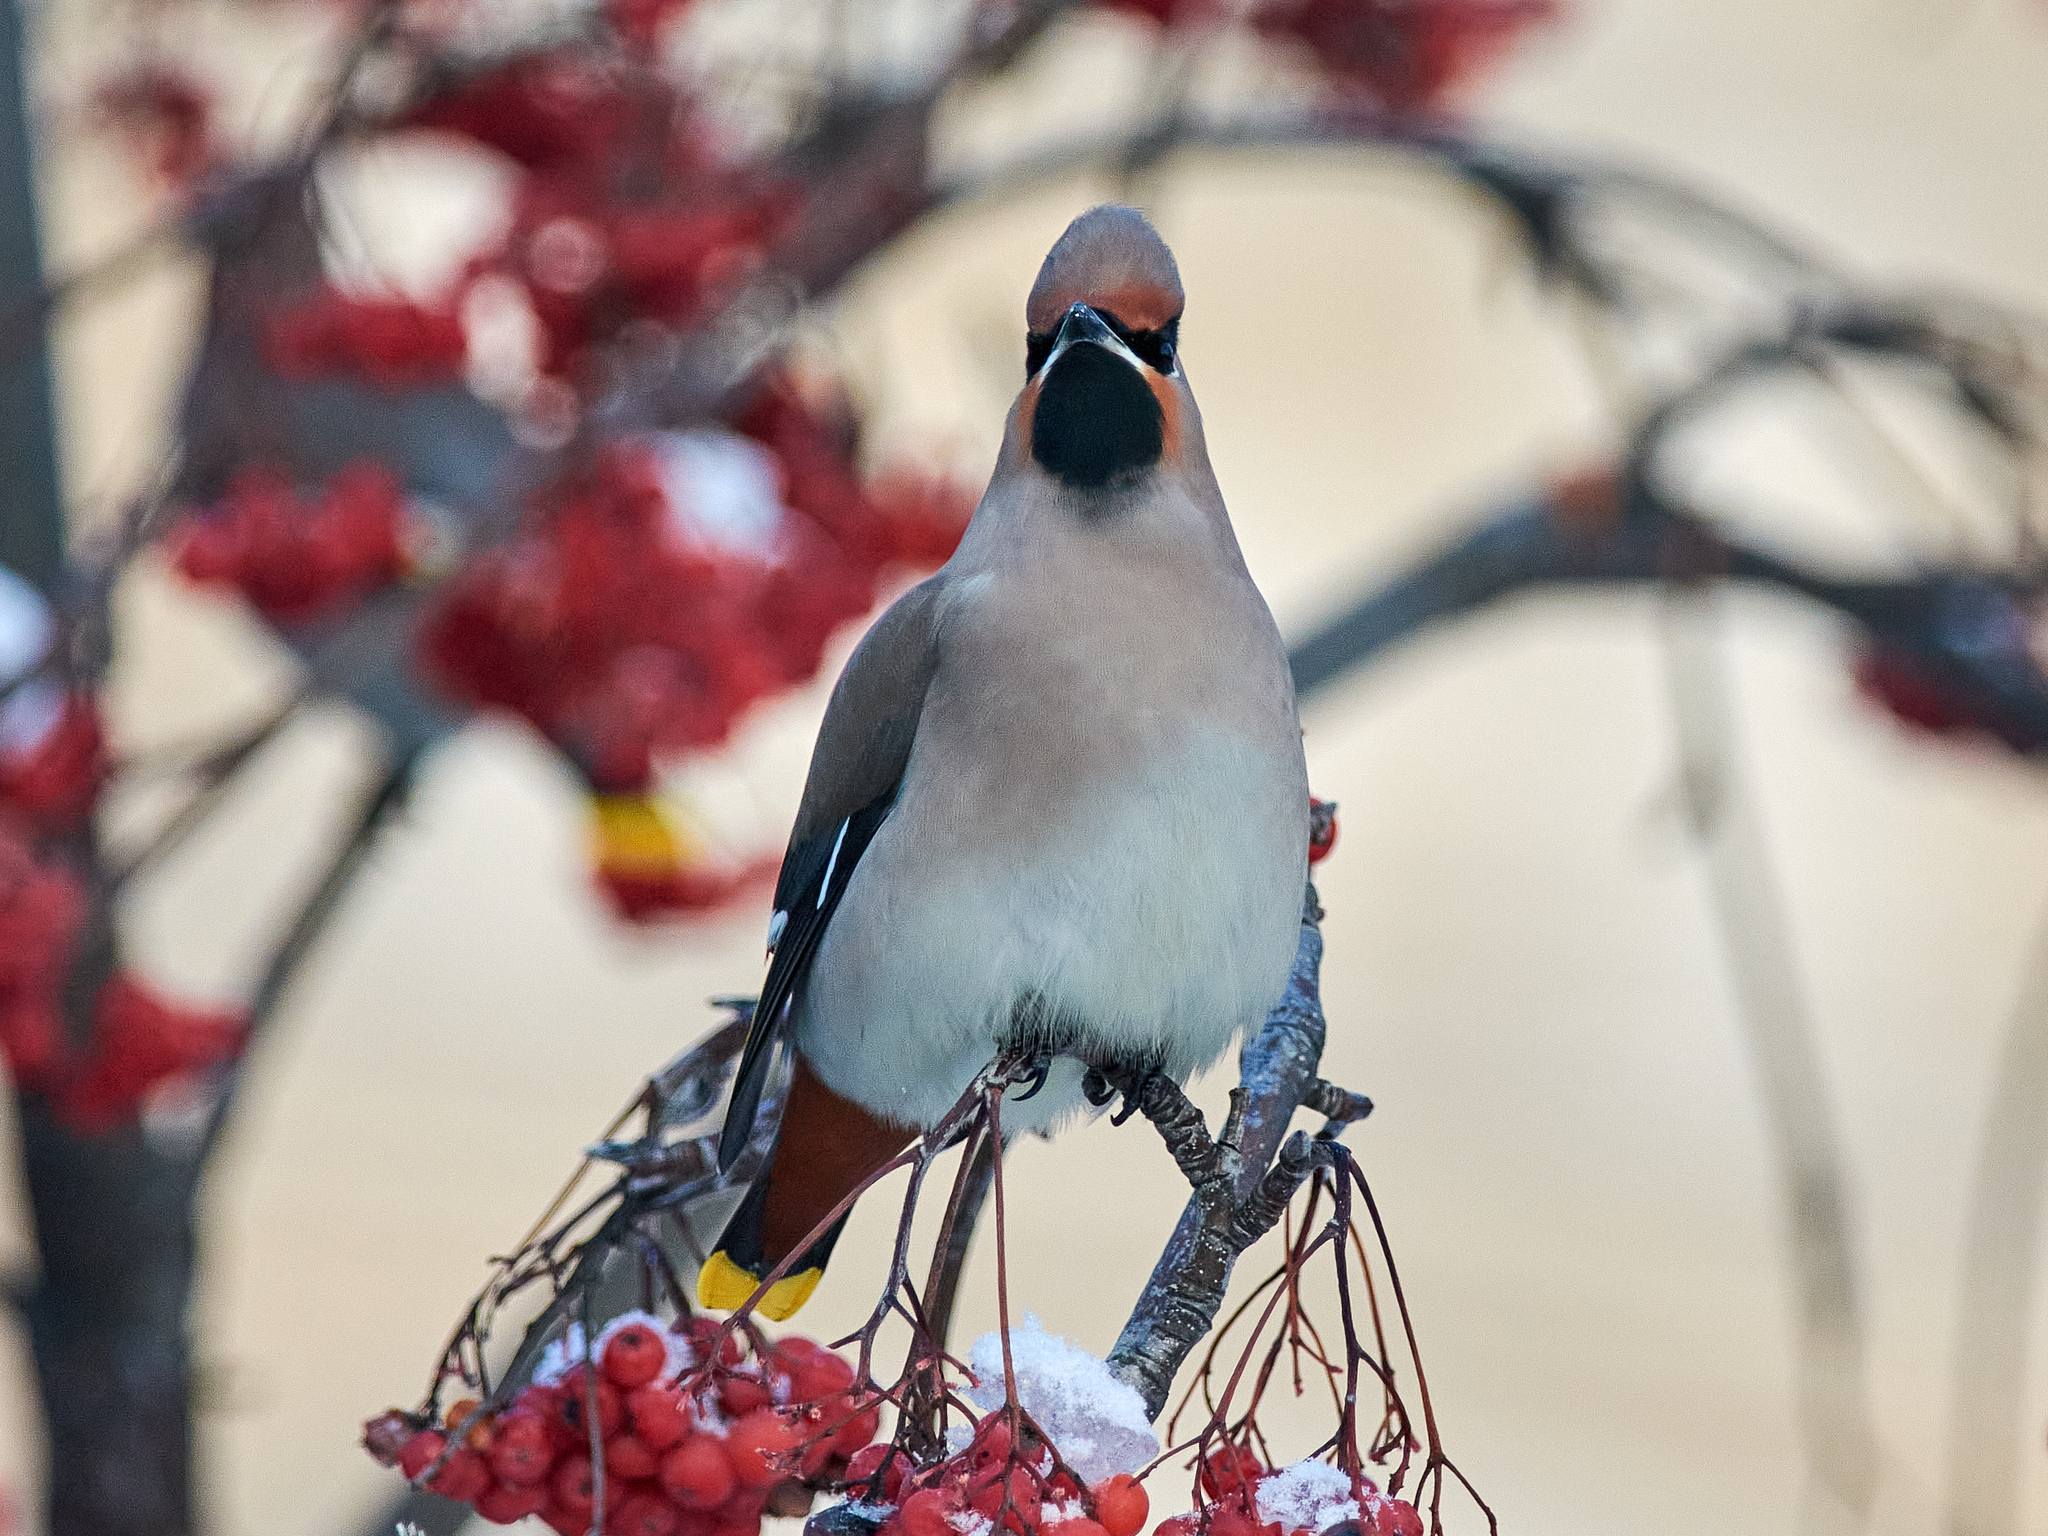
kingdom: Animalia
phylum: Chordata
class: Aves
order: Passeriformes
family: Bombycillidae
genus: Bombycilla
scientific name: Bombycilla garrulus
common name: Bohemian waxwing
